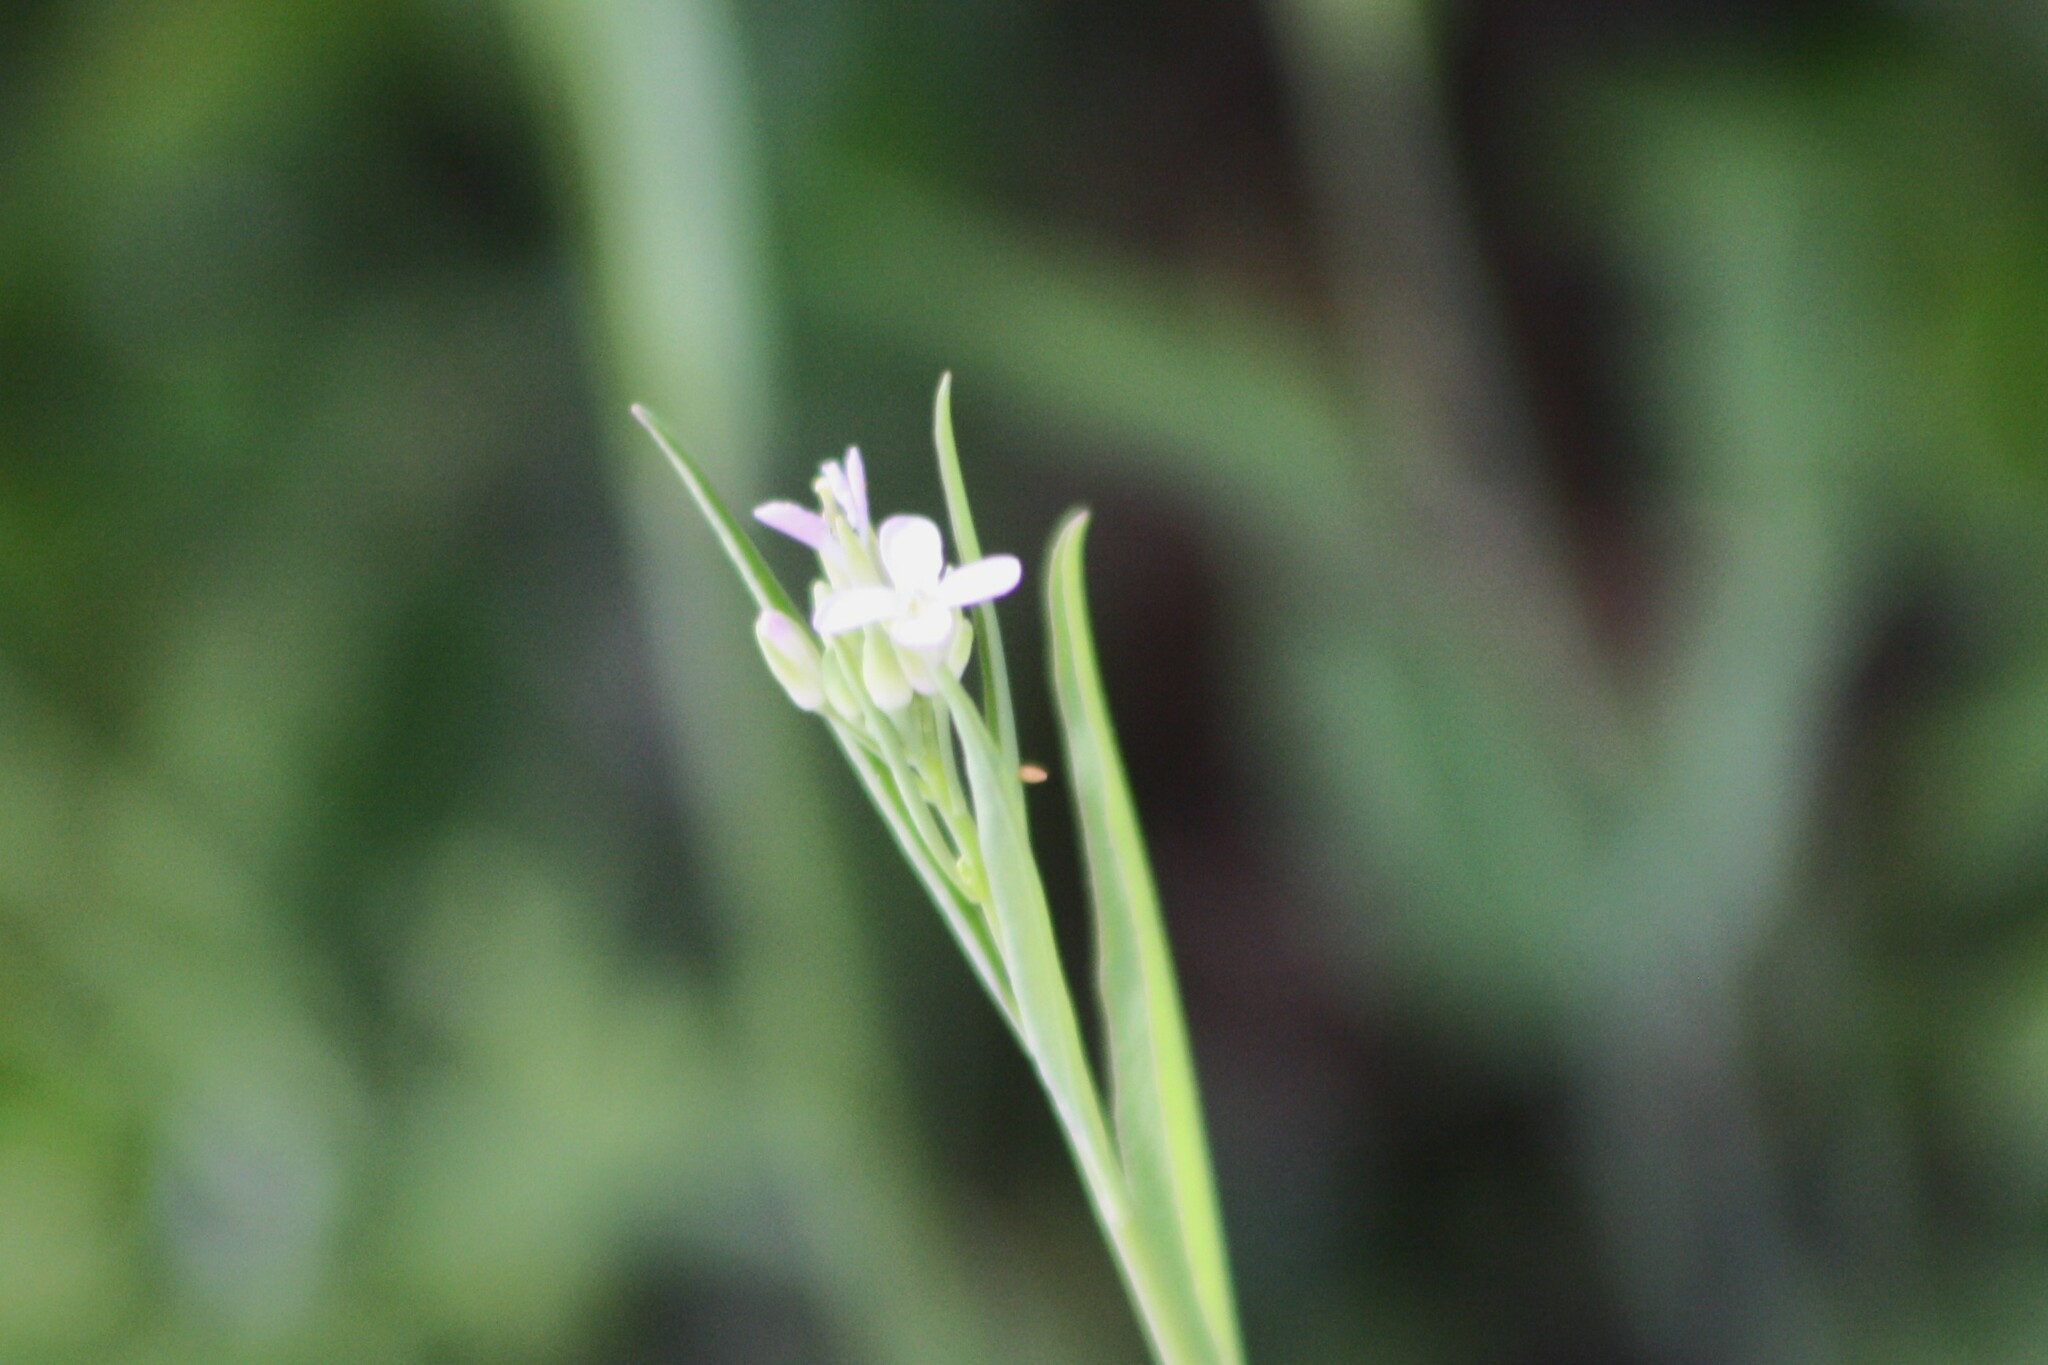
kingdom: Plantae
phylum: Tracheophyta
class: Magnoliopsida
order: Brassicales
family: Brassicaceae
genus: Streptanthus
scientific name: Streptanthus petiolaris
